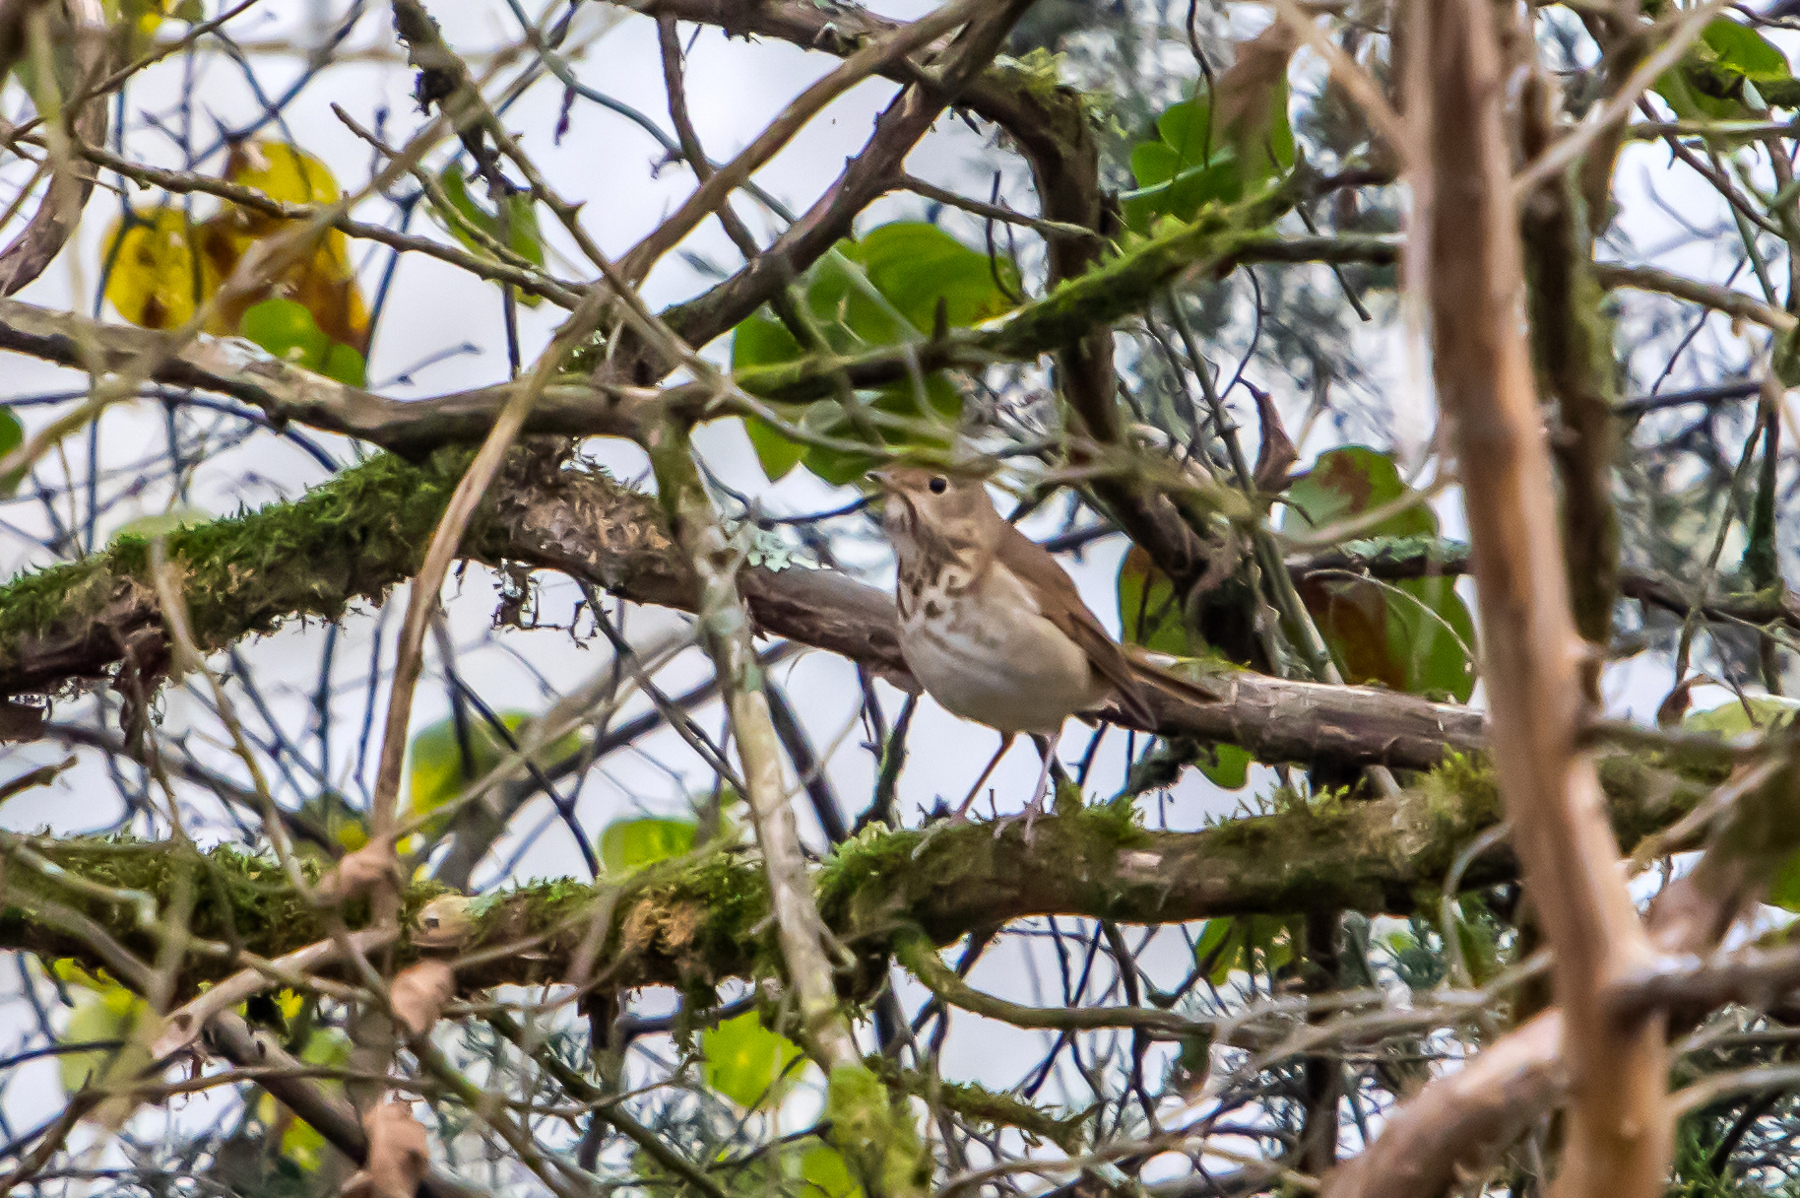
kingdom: Animalia
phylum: Chordata
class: Aves
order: Passeriformes
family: Turdidae
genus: Catharus
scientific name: Catharus guttatus
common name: Hermit thrush
